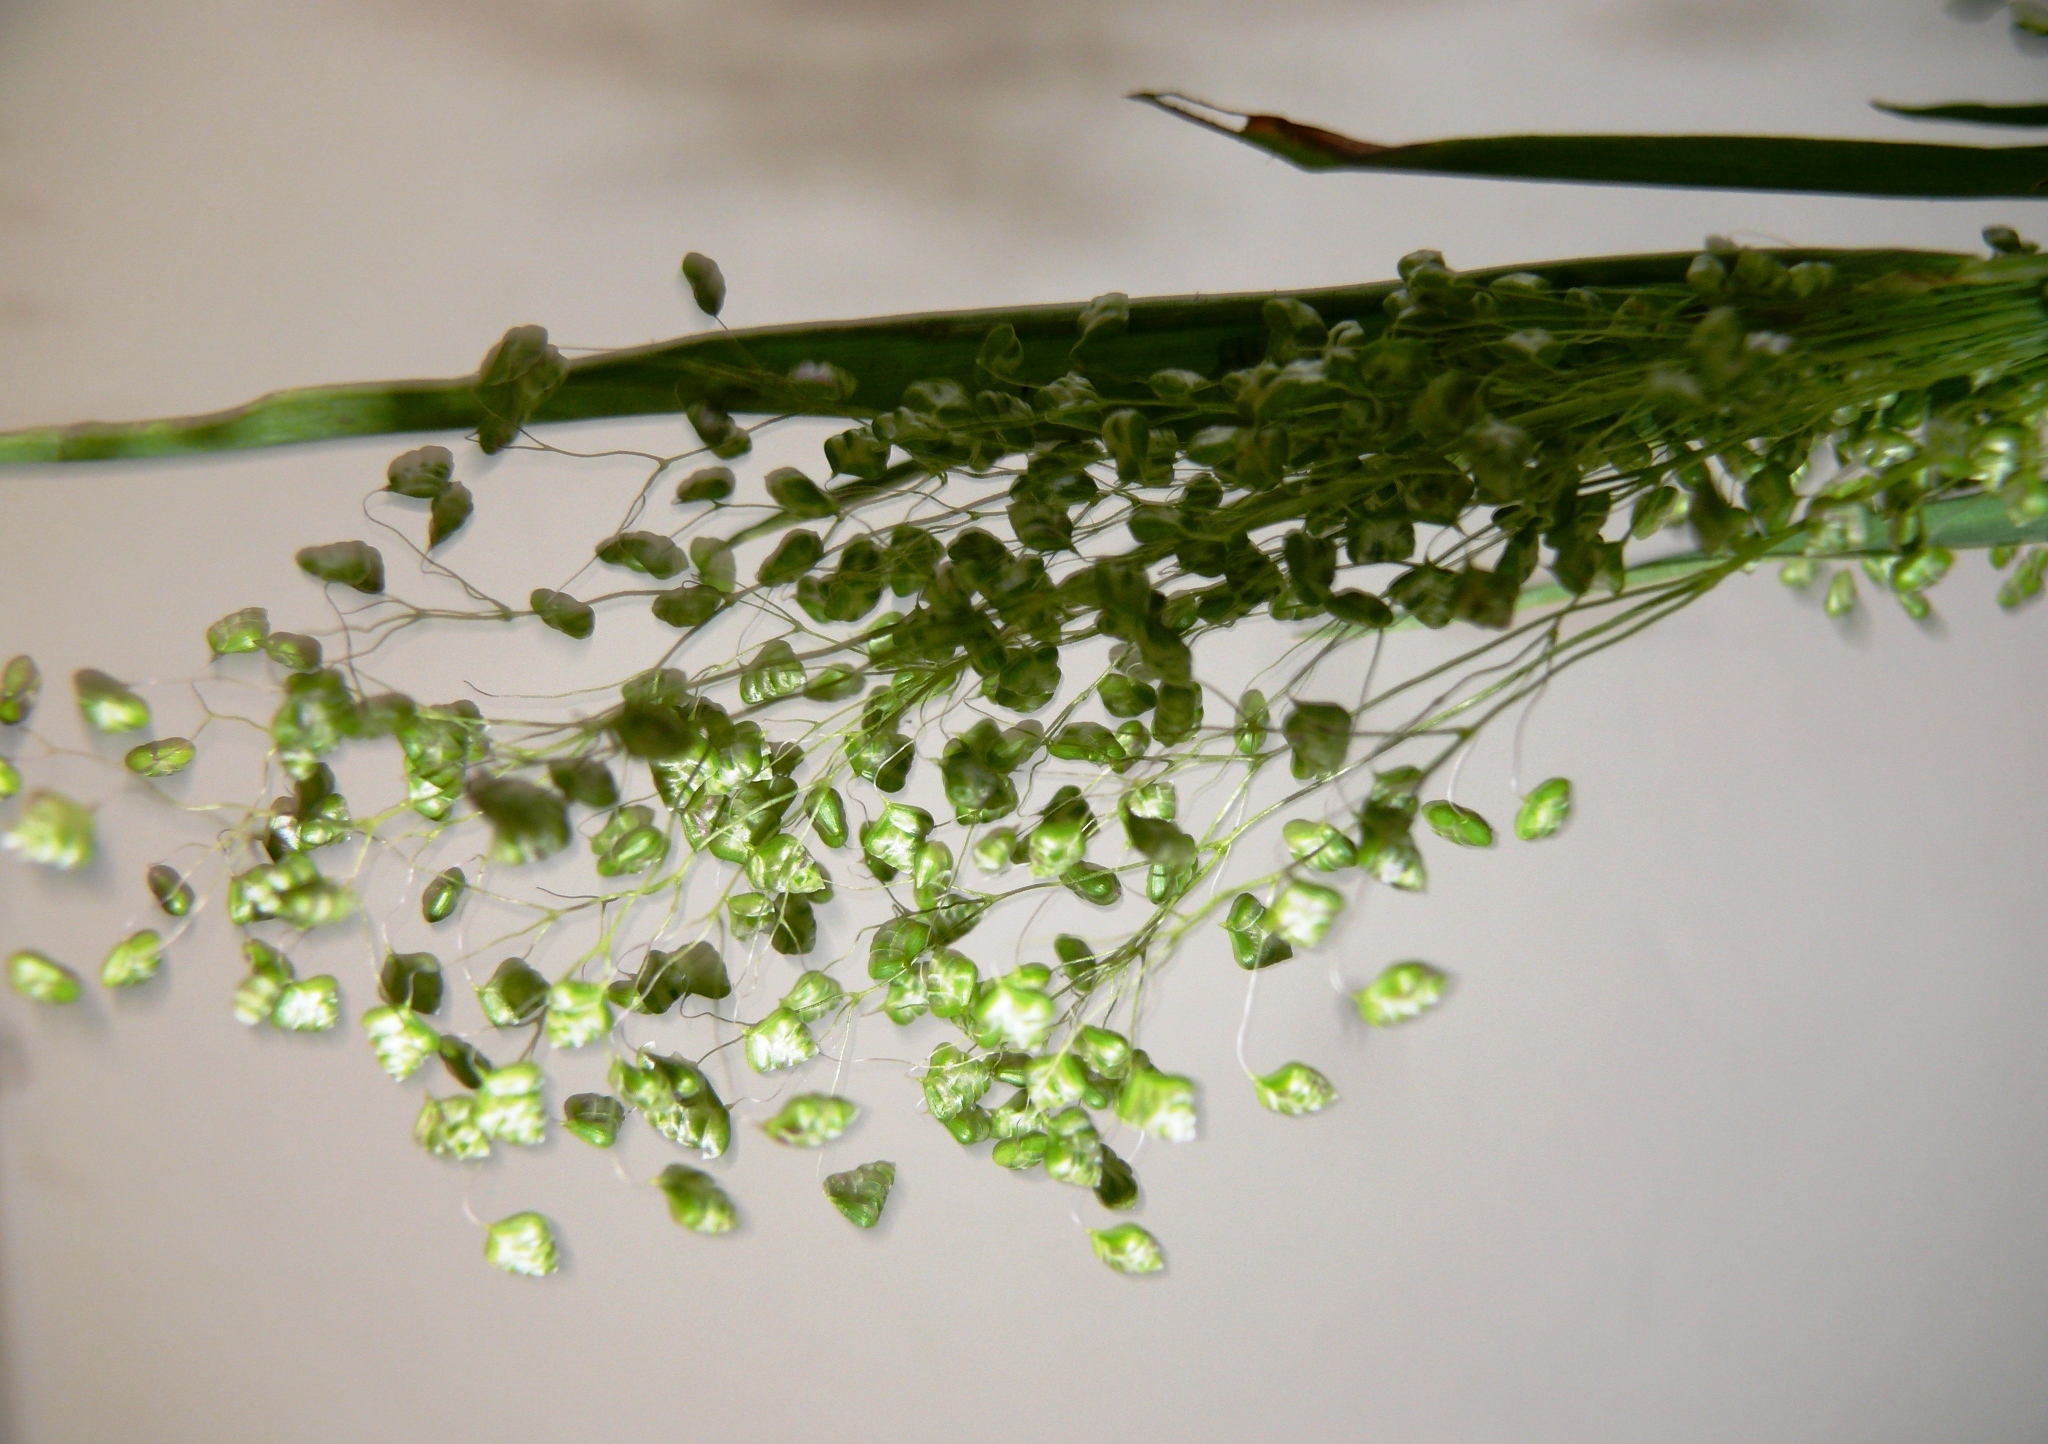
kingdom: Plantae
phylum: Tracheophyta
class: Liliopsida
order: Poales
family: Poaceae
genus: Briza
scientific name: Briza minor
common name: Lesser quaking-grass
